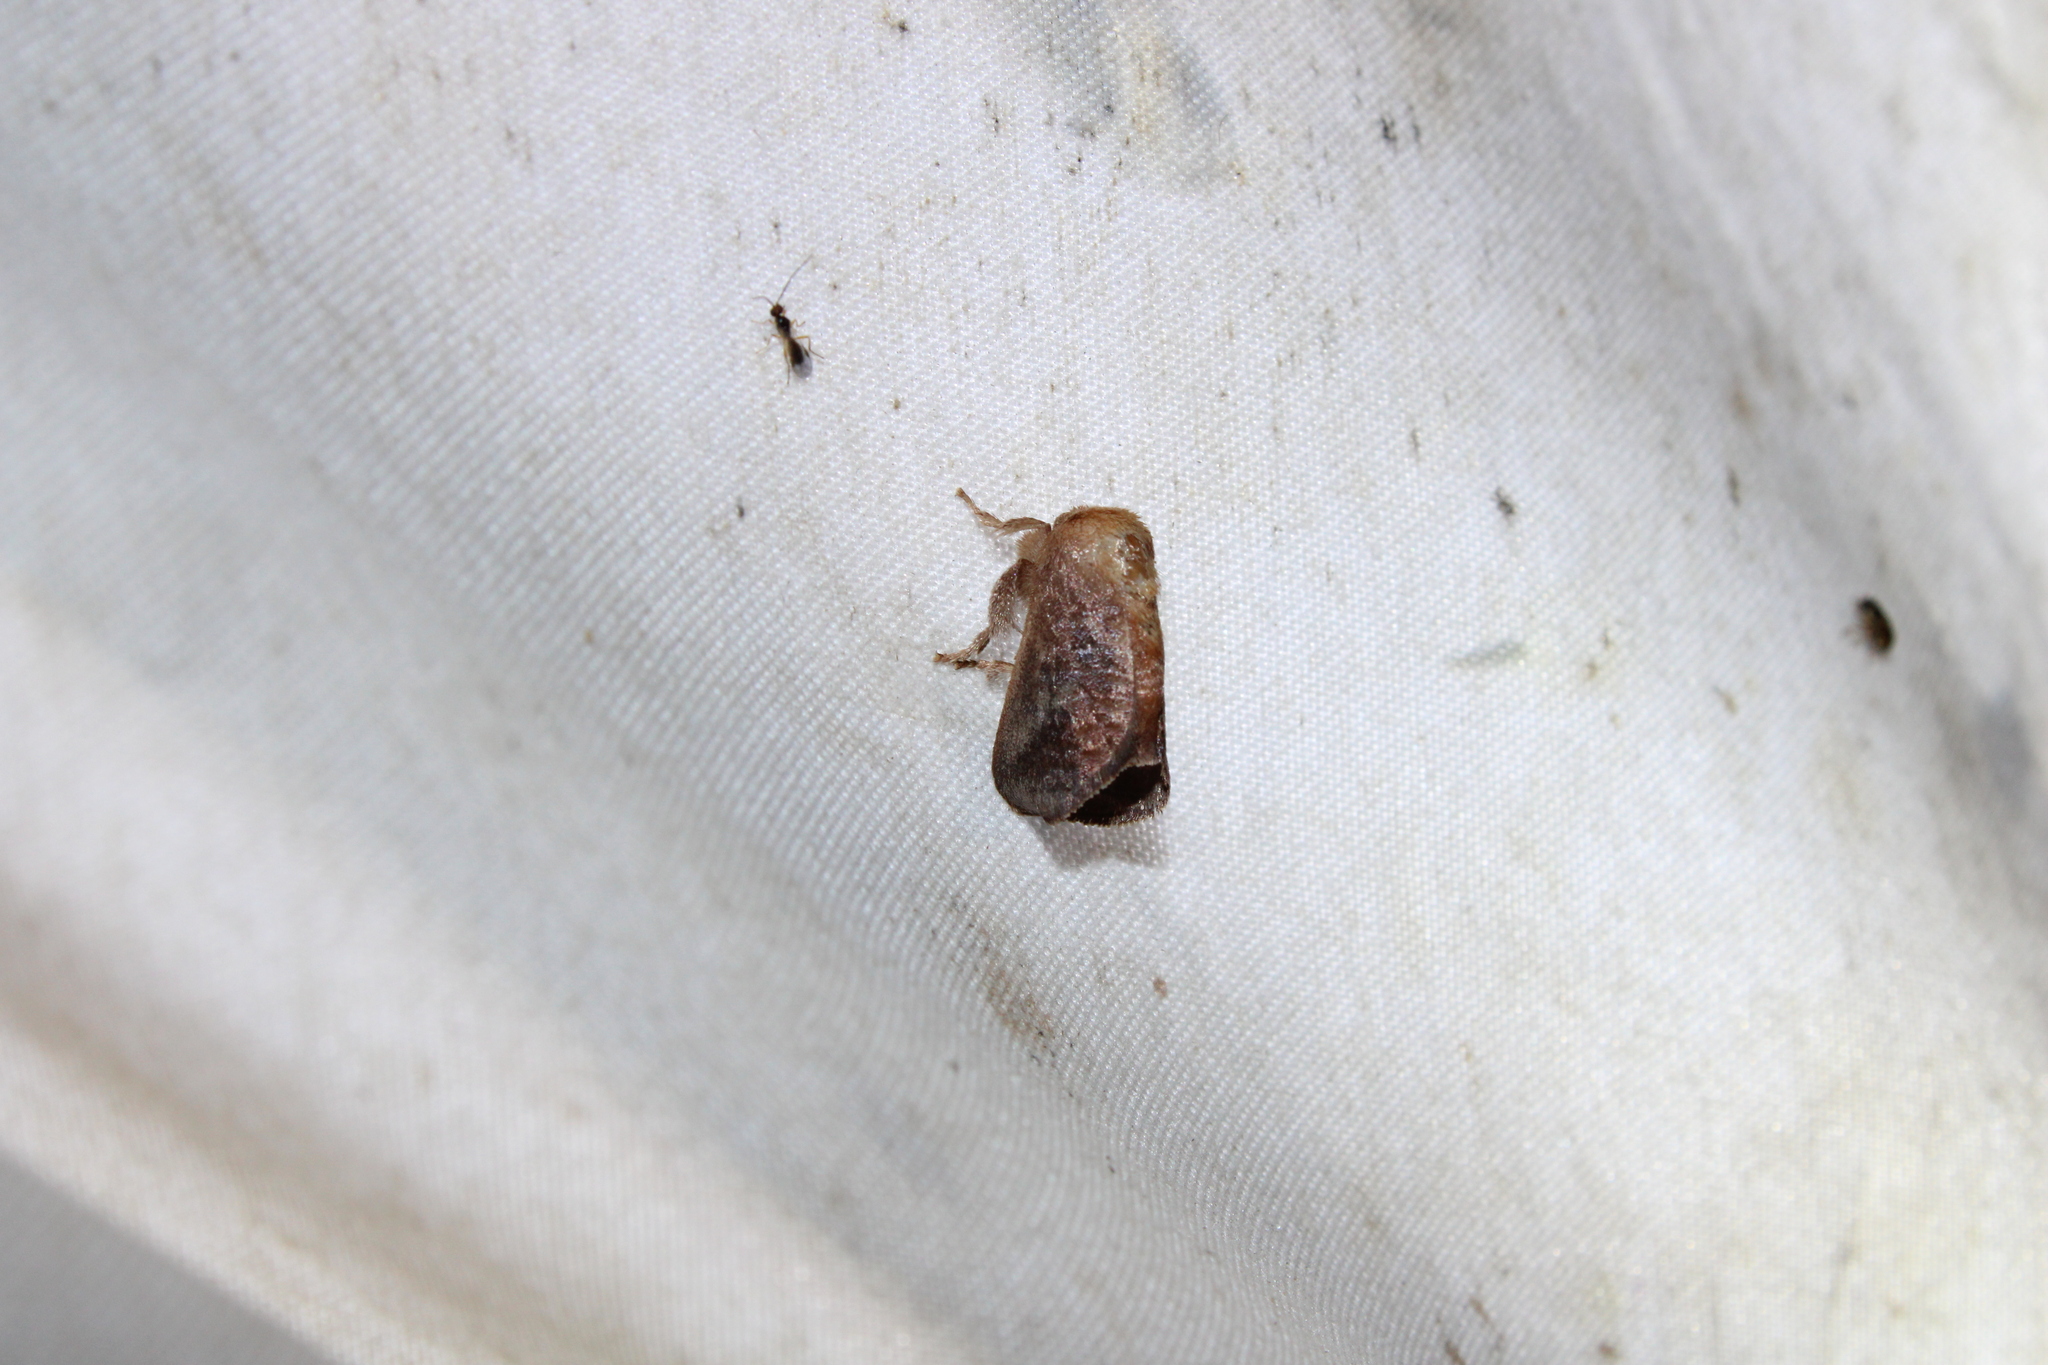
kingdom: Animalia
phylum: Arthropoda
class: Insecta
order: Lepidoptera
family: Limacodidae
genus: Isa
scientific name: Isa textula
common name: Crowned slug moth
